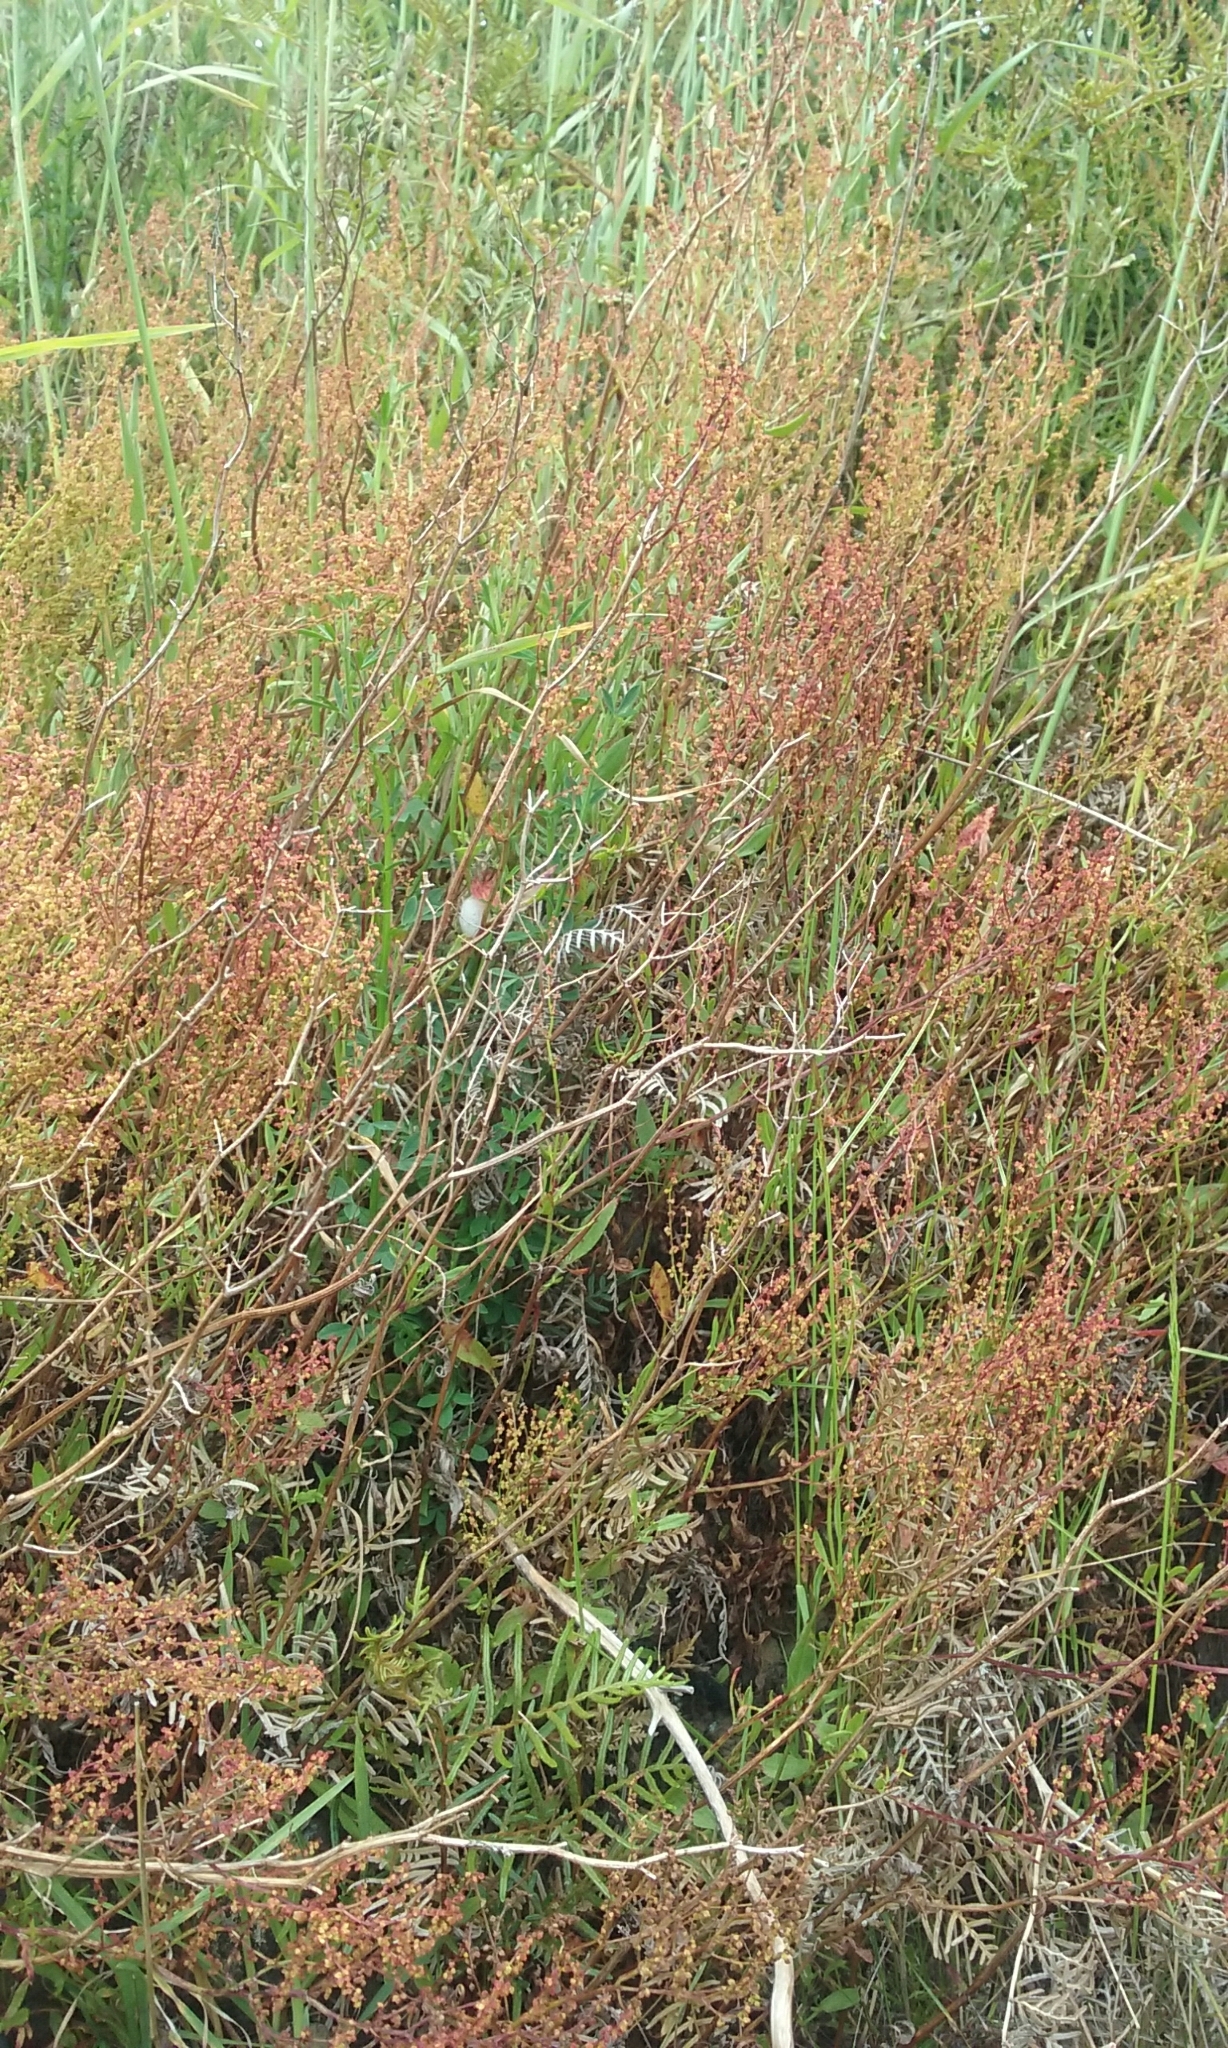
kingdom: Plantae
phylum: Tracheophyta
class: Magnoliopsida
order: Caryophyllales
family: Polygonaceae
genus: Rumex
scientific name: Rumex acetosella
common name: Common sheep sorrel
